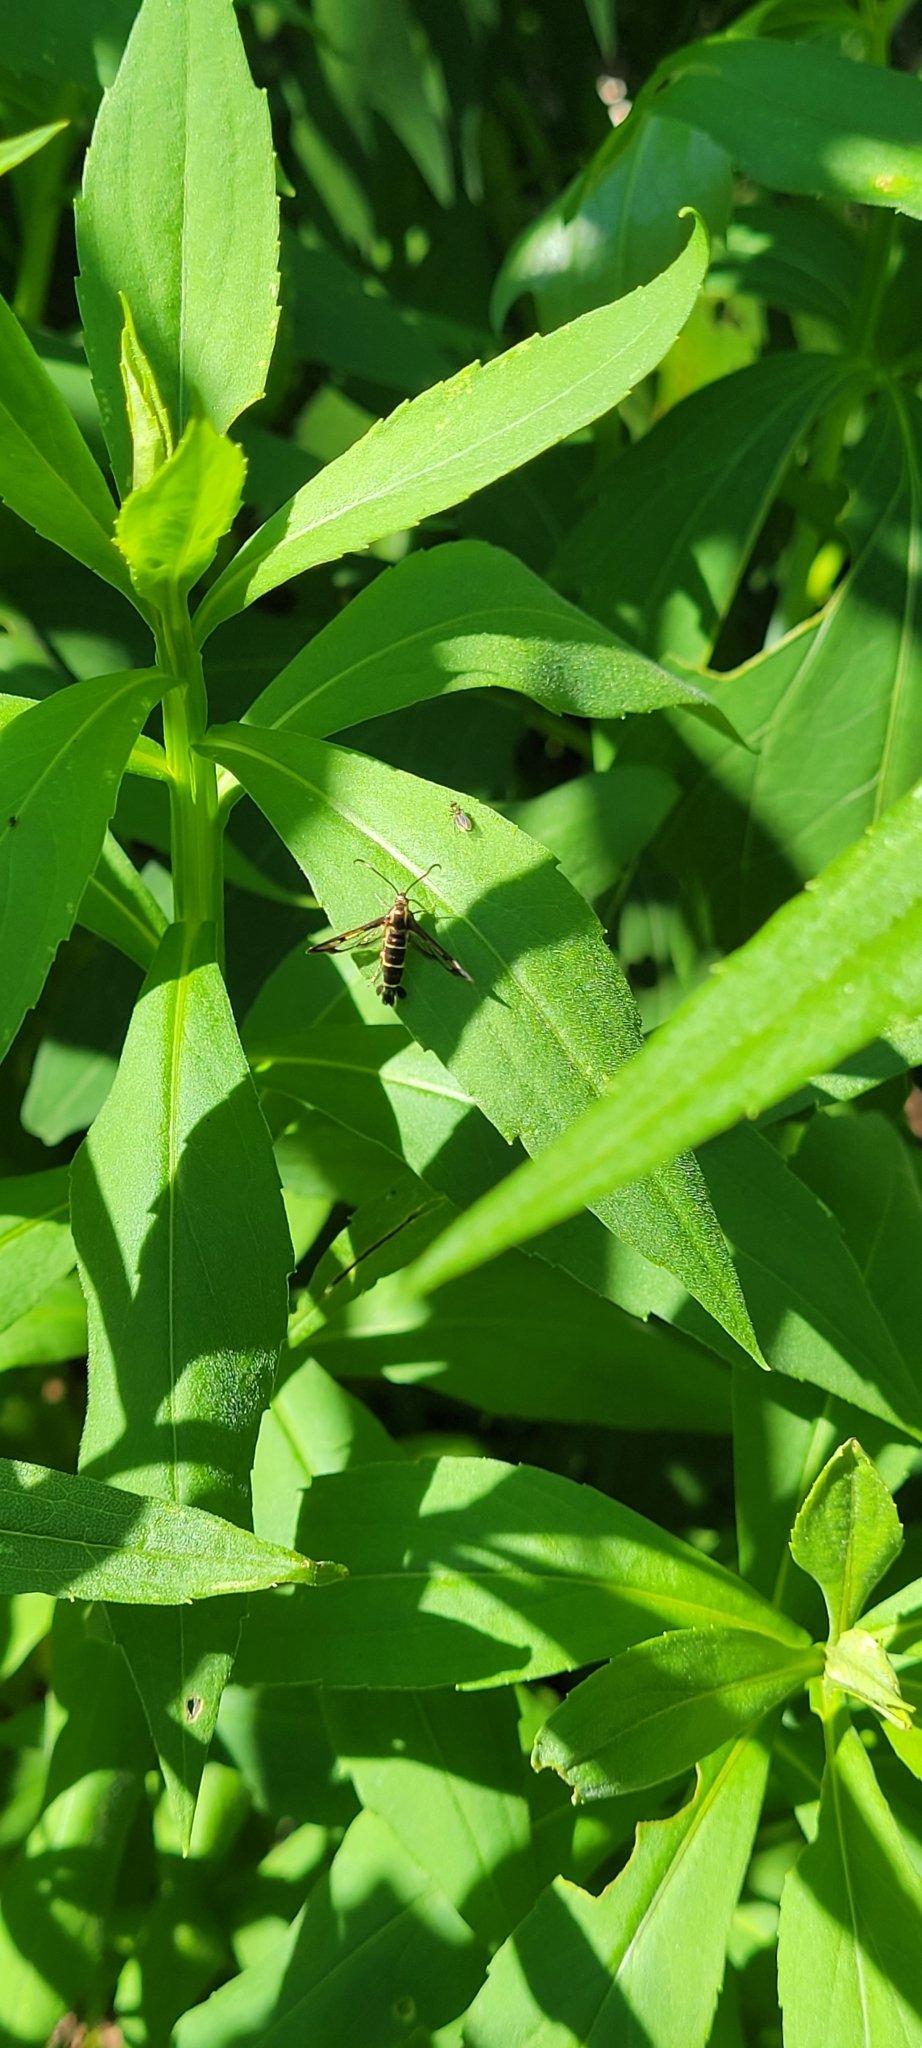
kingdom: Animalia
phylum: Arthropoda
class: Insecta
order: Lepidoptera
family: Sesiidae
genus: Carmenta
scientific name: Carmenta ithacae
